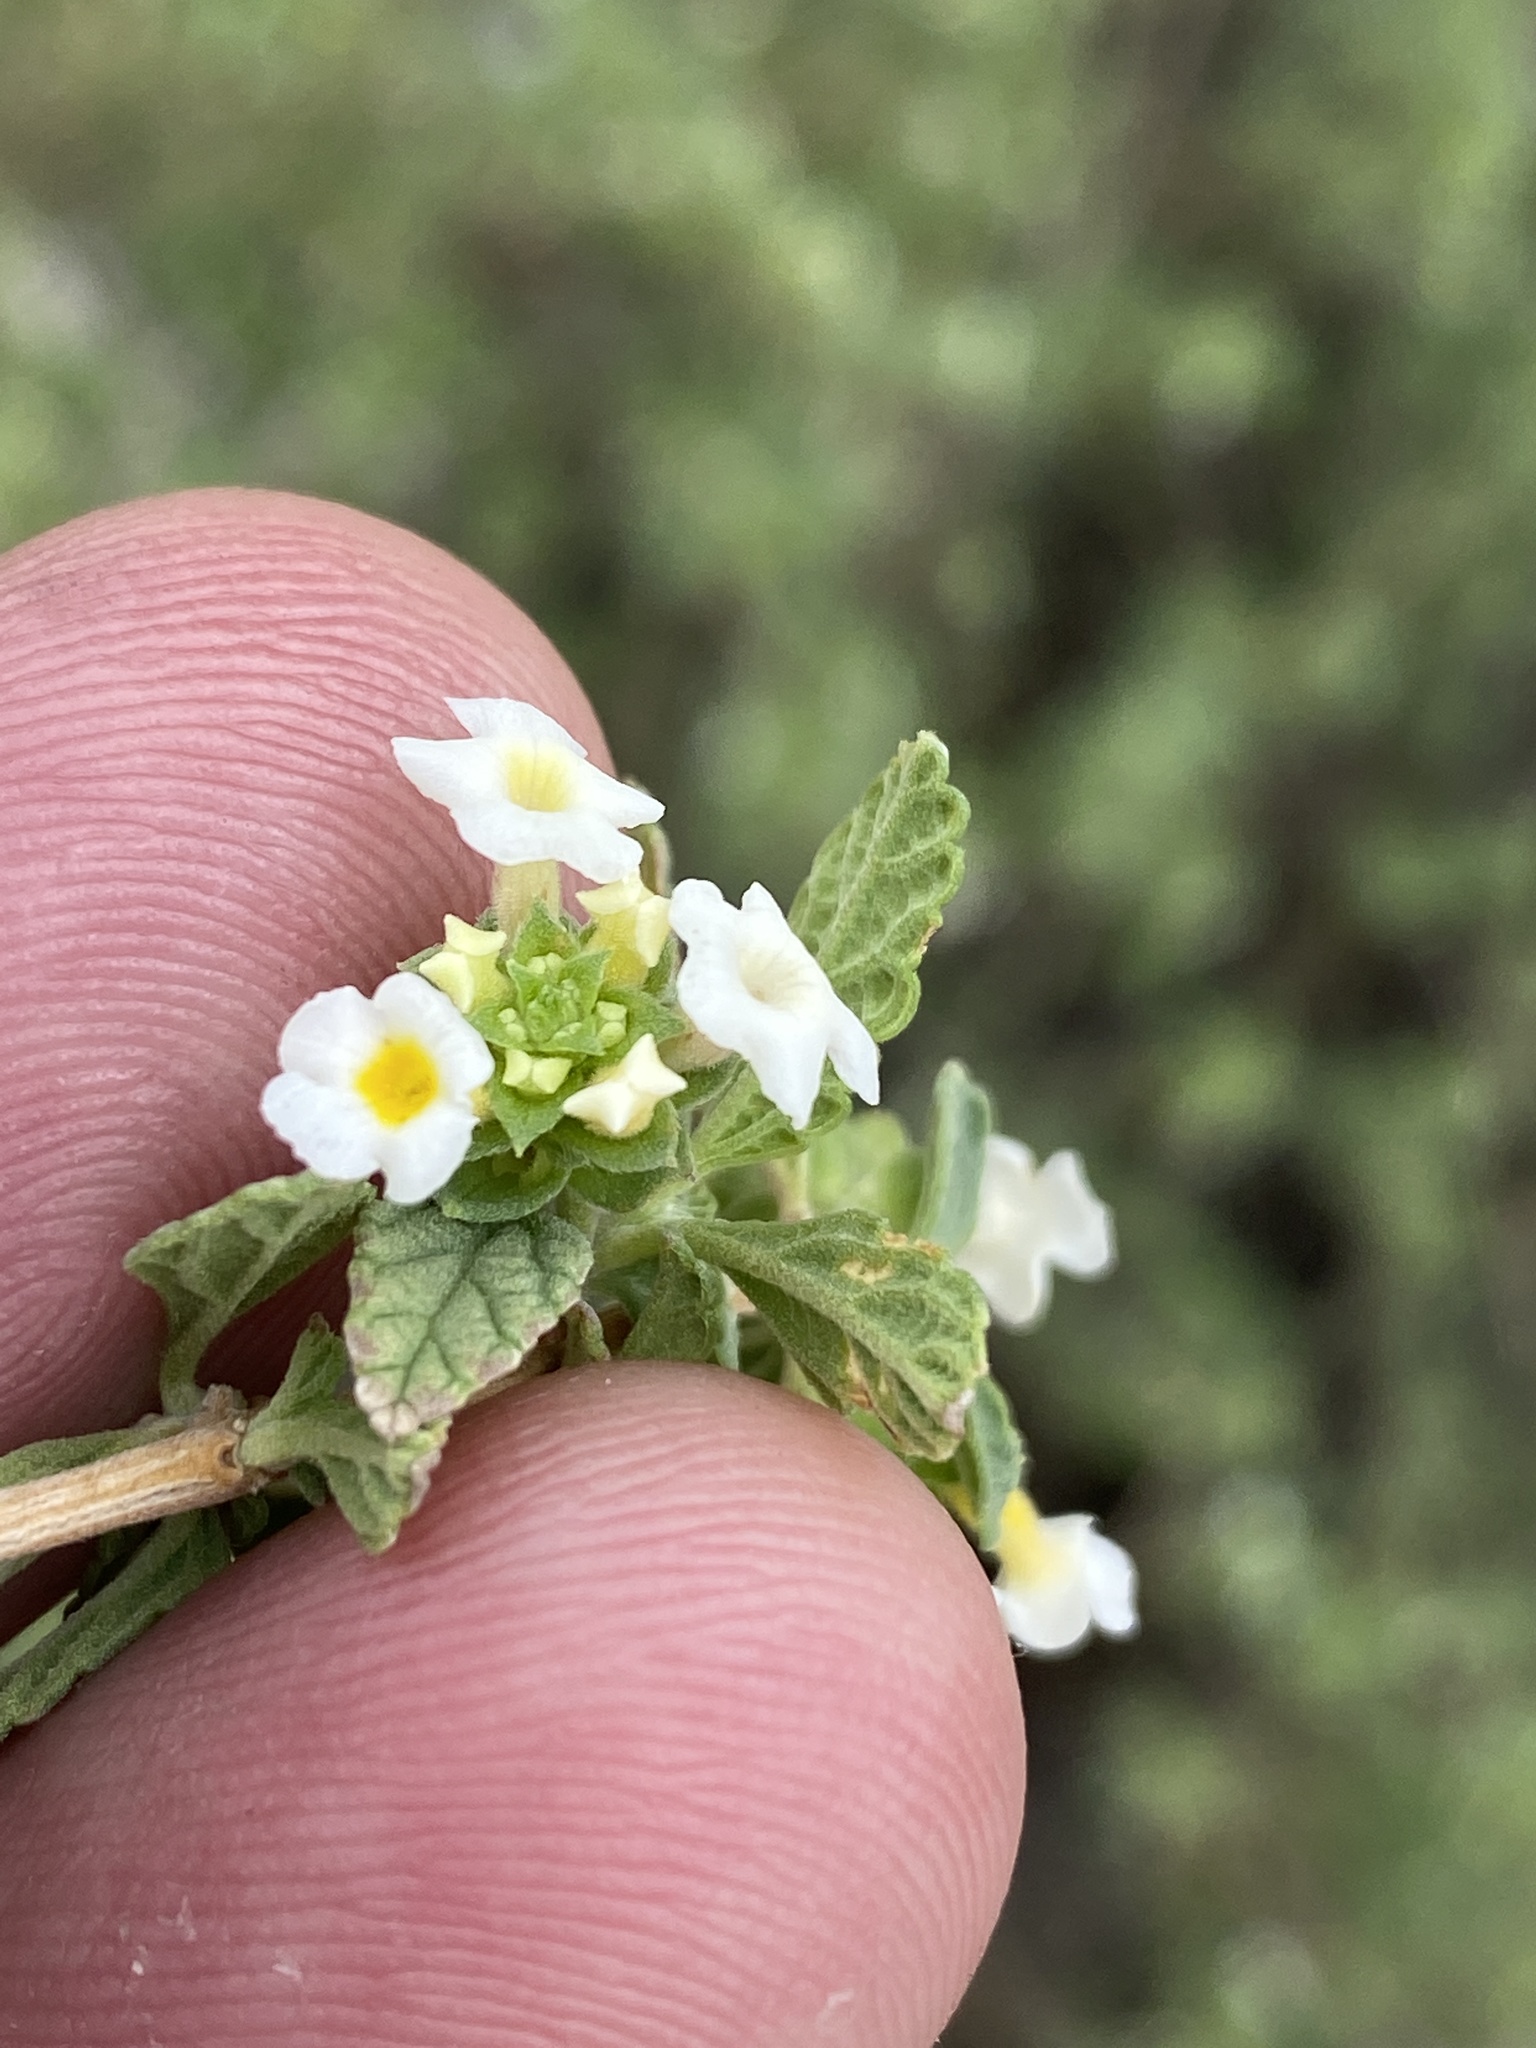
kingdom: Plantae
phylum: Tracheophyta
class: Magnoliopsida
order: Lamiales
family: Verbenaceae
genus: Lantana
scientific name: Lantana dinteri
